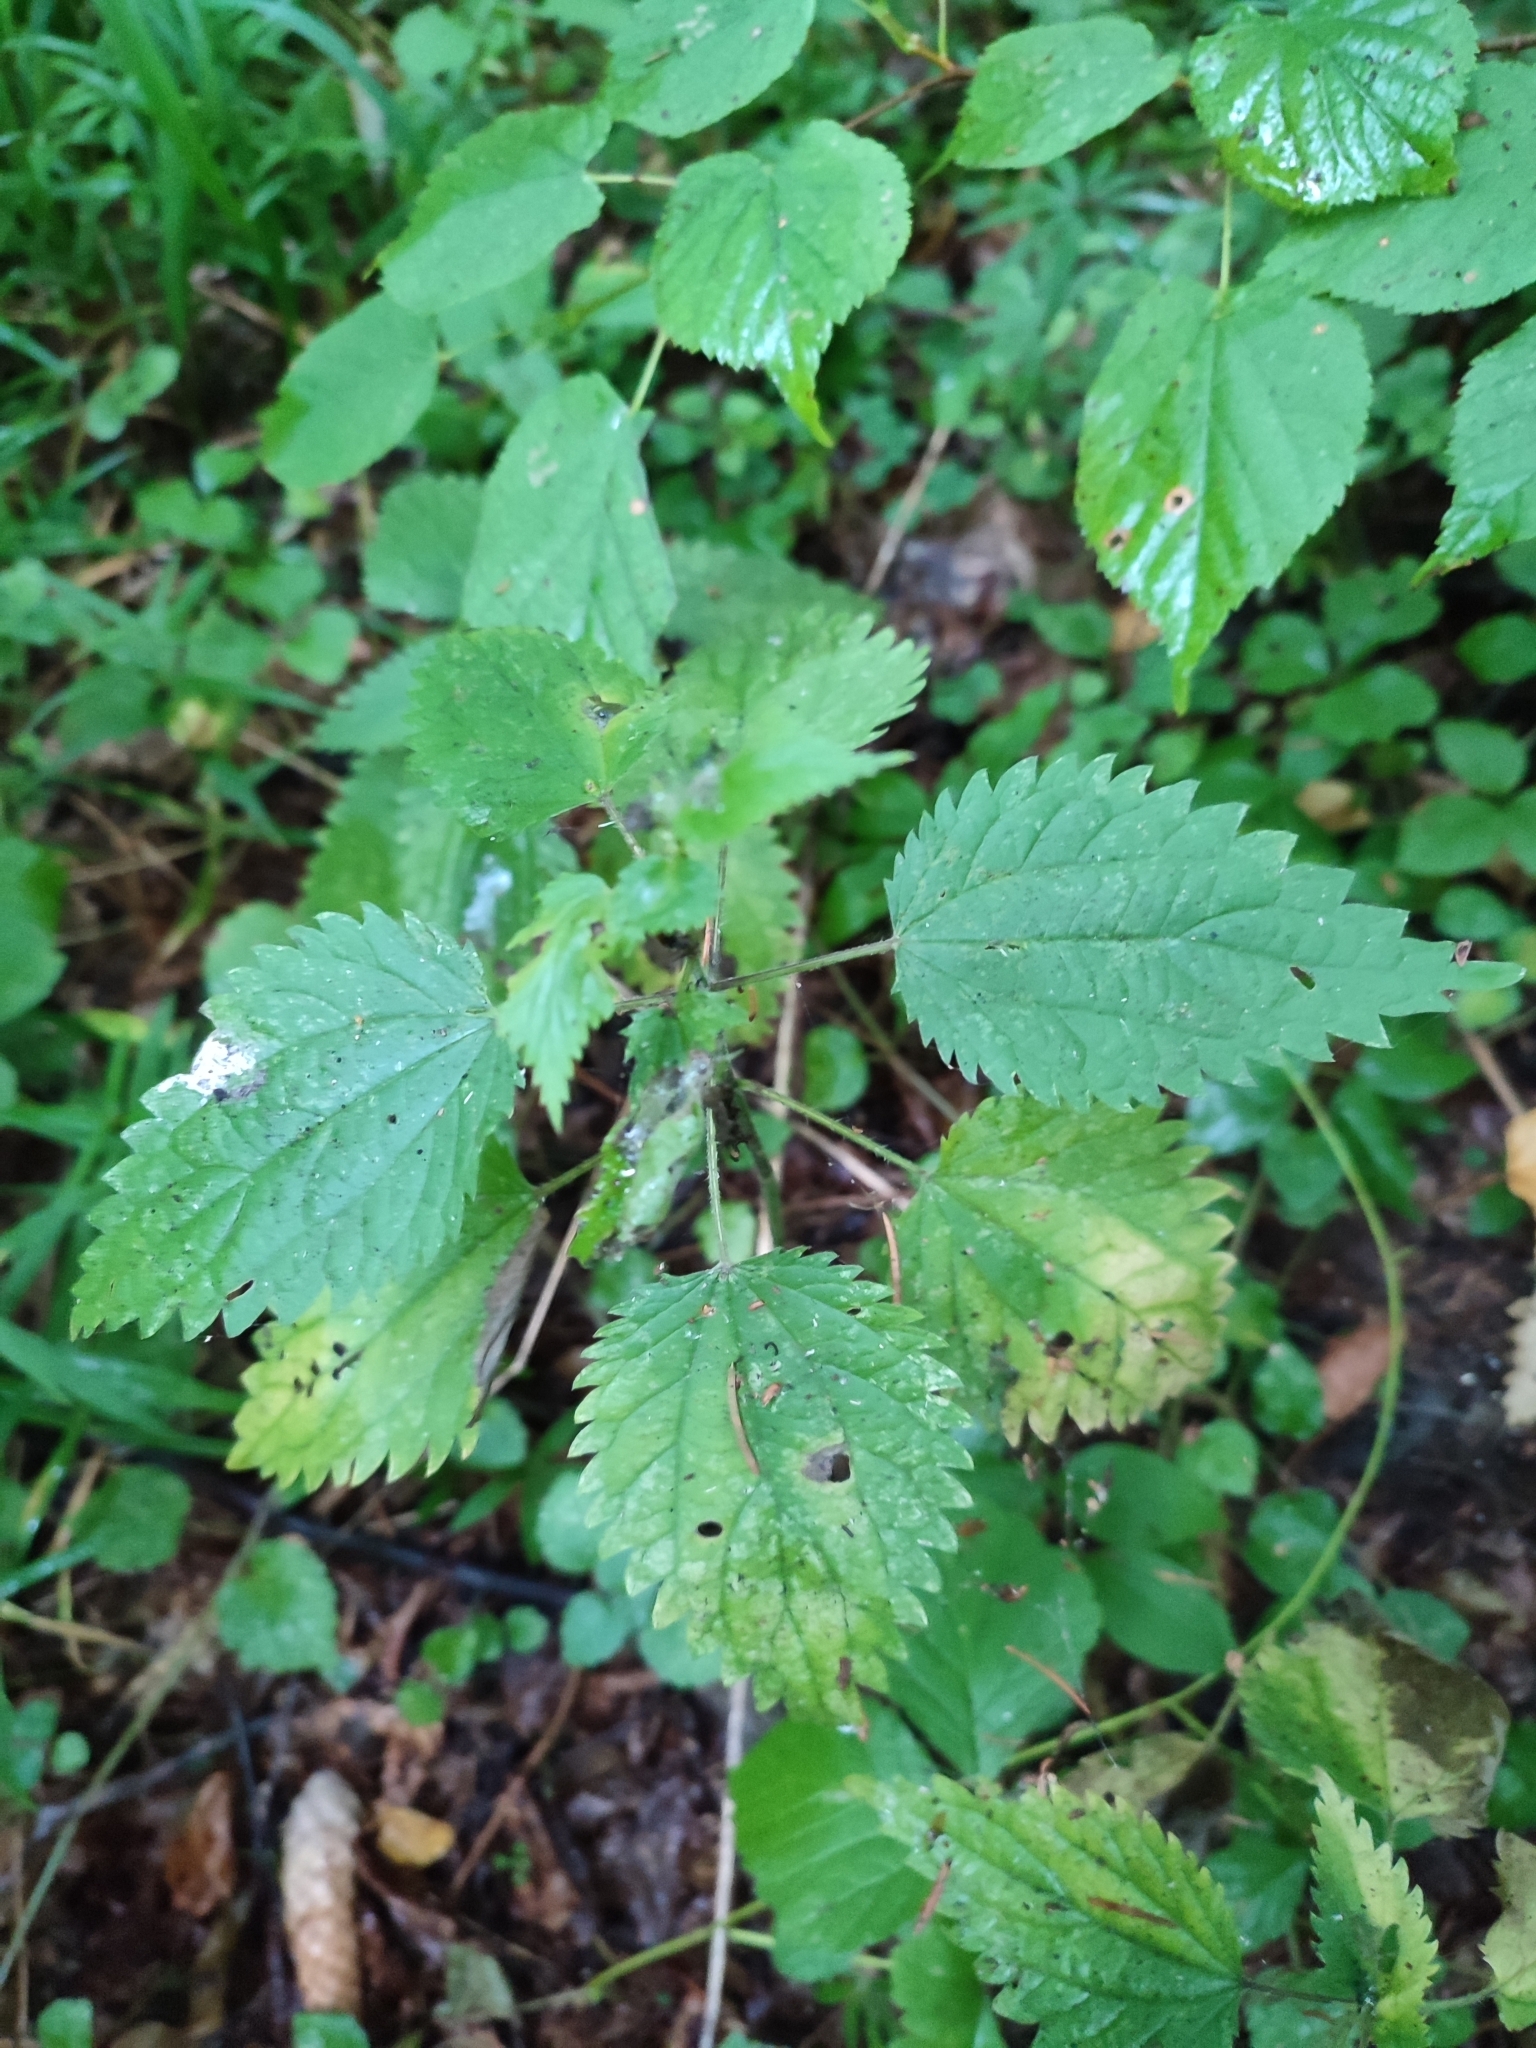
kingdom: Plantae
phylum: Tracheophyta
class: Magnoliopsida
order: Rosales
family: Urticaceae
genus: Urtica
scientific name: Urtica dioica
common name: Common nettle
